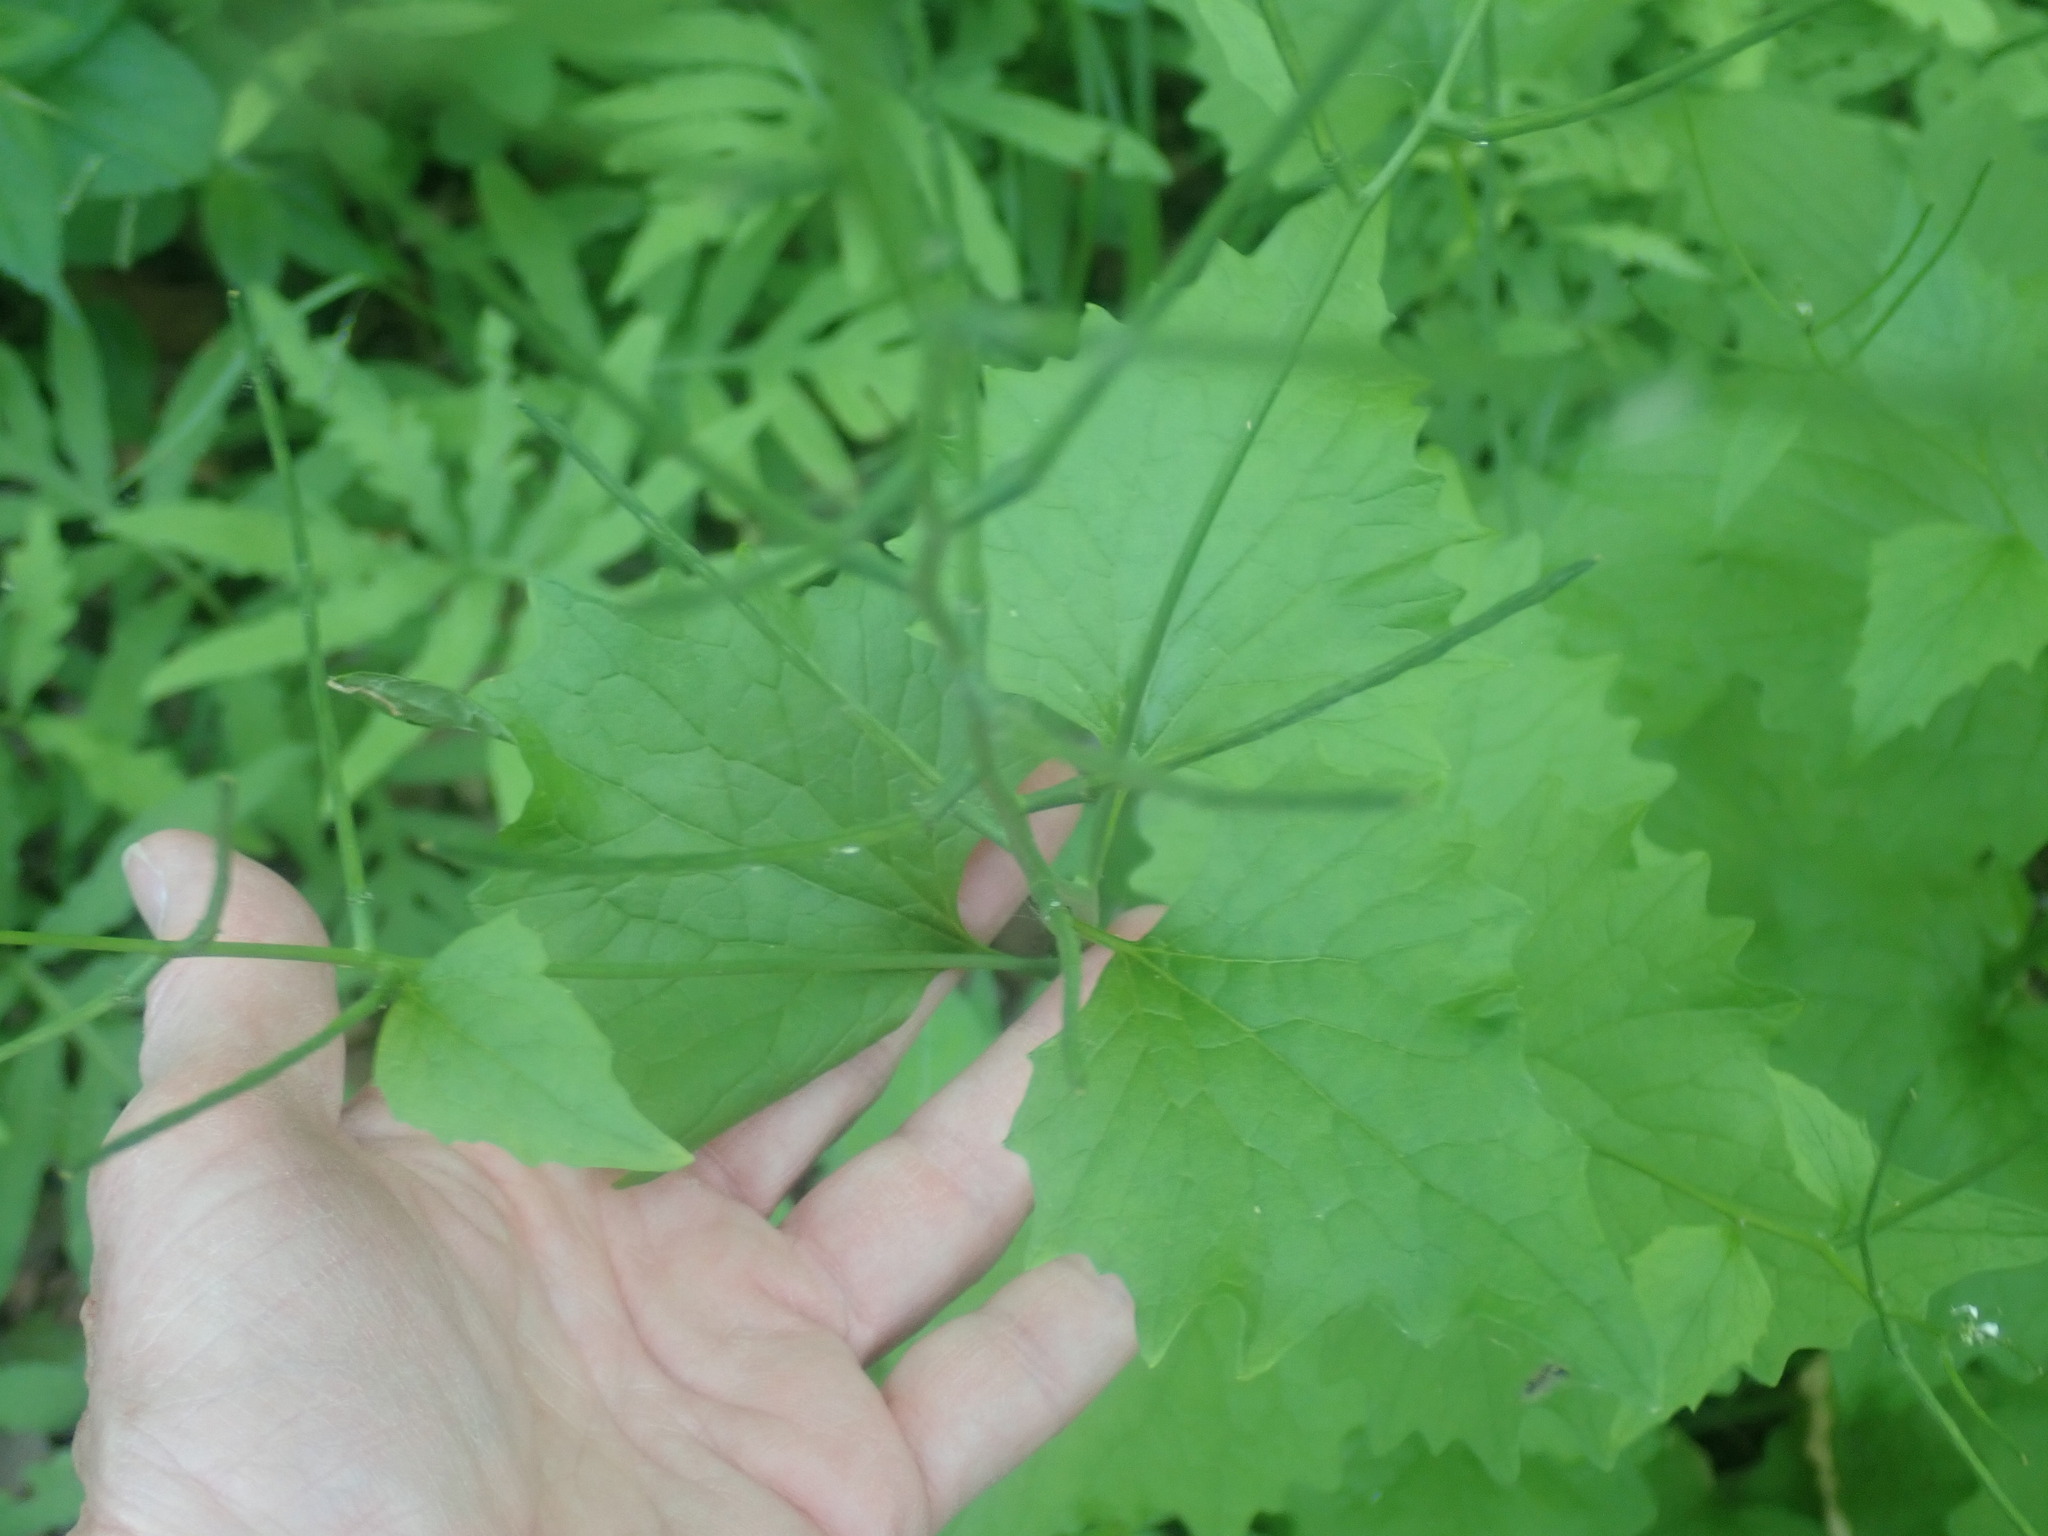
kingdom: Plantae
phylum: Tracheophyta
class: Magnoliopsida
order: Brassicales
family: Brassicaceae
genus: Alliaria
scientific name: Alliaria petiolata
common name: Garlic mustard
